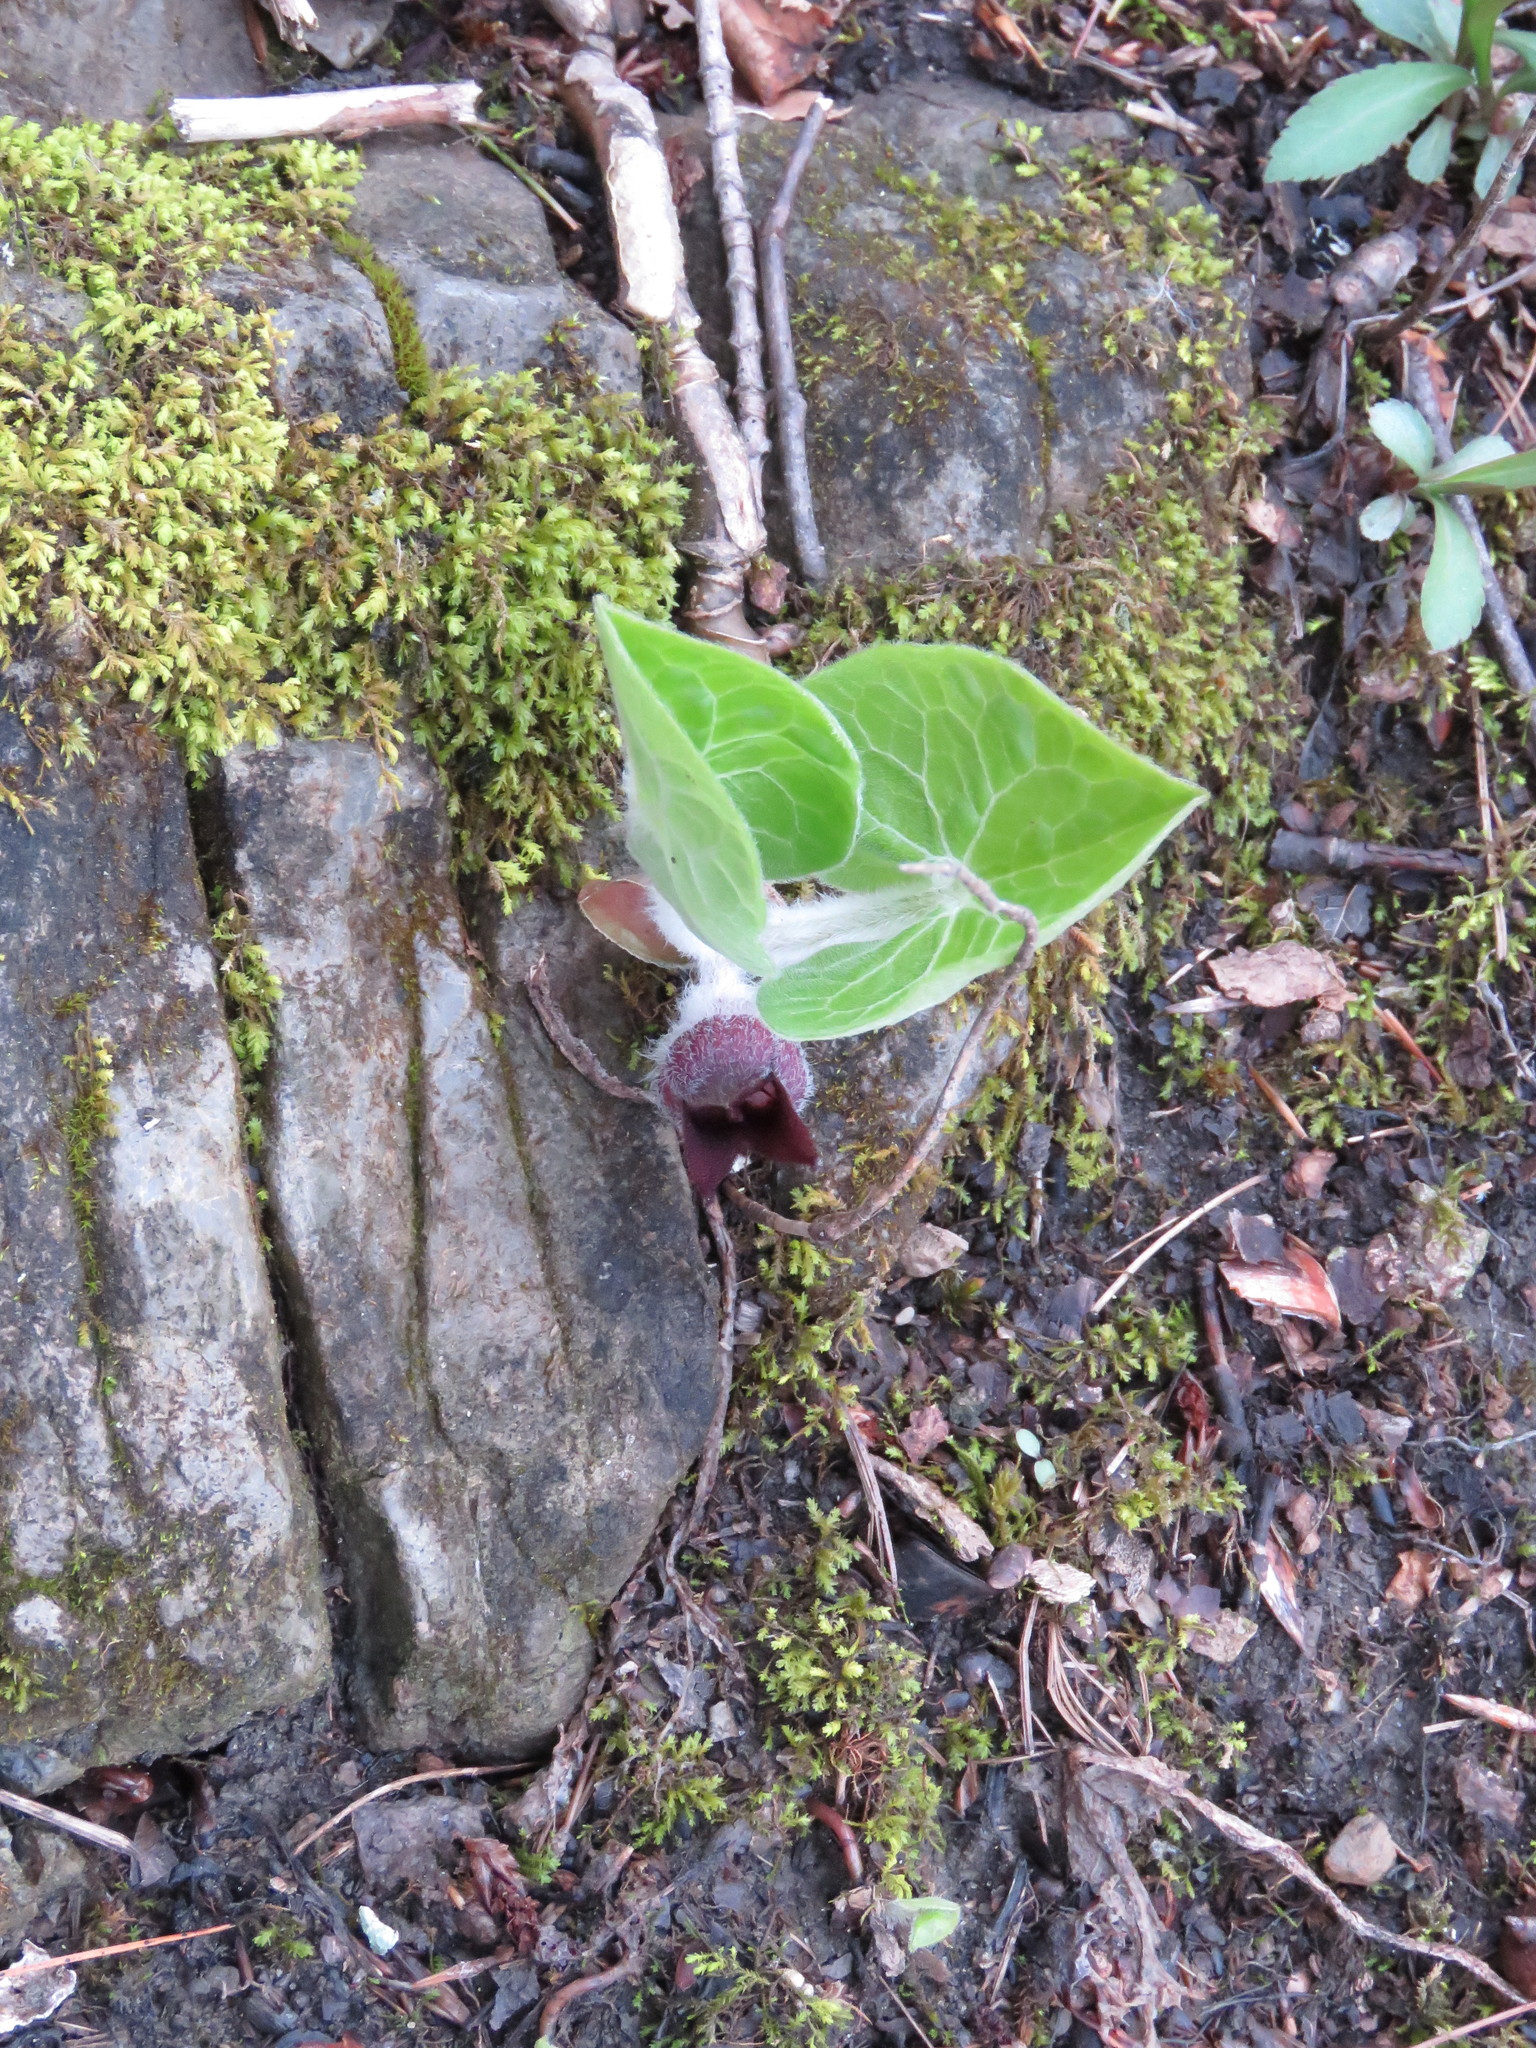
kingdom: Plantae
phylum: Tracheophyta
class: Magnoliopsida
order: Piperales
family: Aristolochiaceae
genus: Asarum
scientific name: Asarum canadense
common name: Wild ginger
